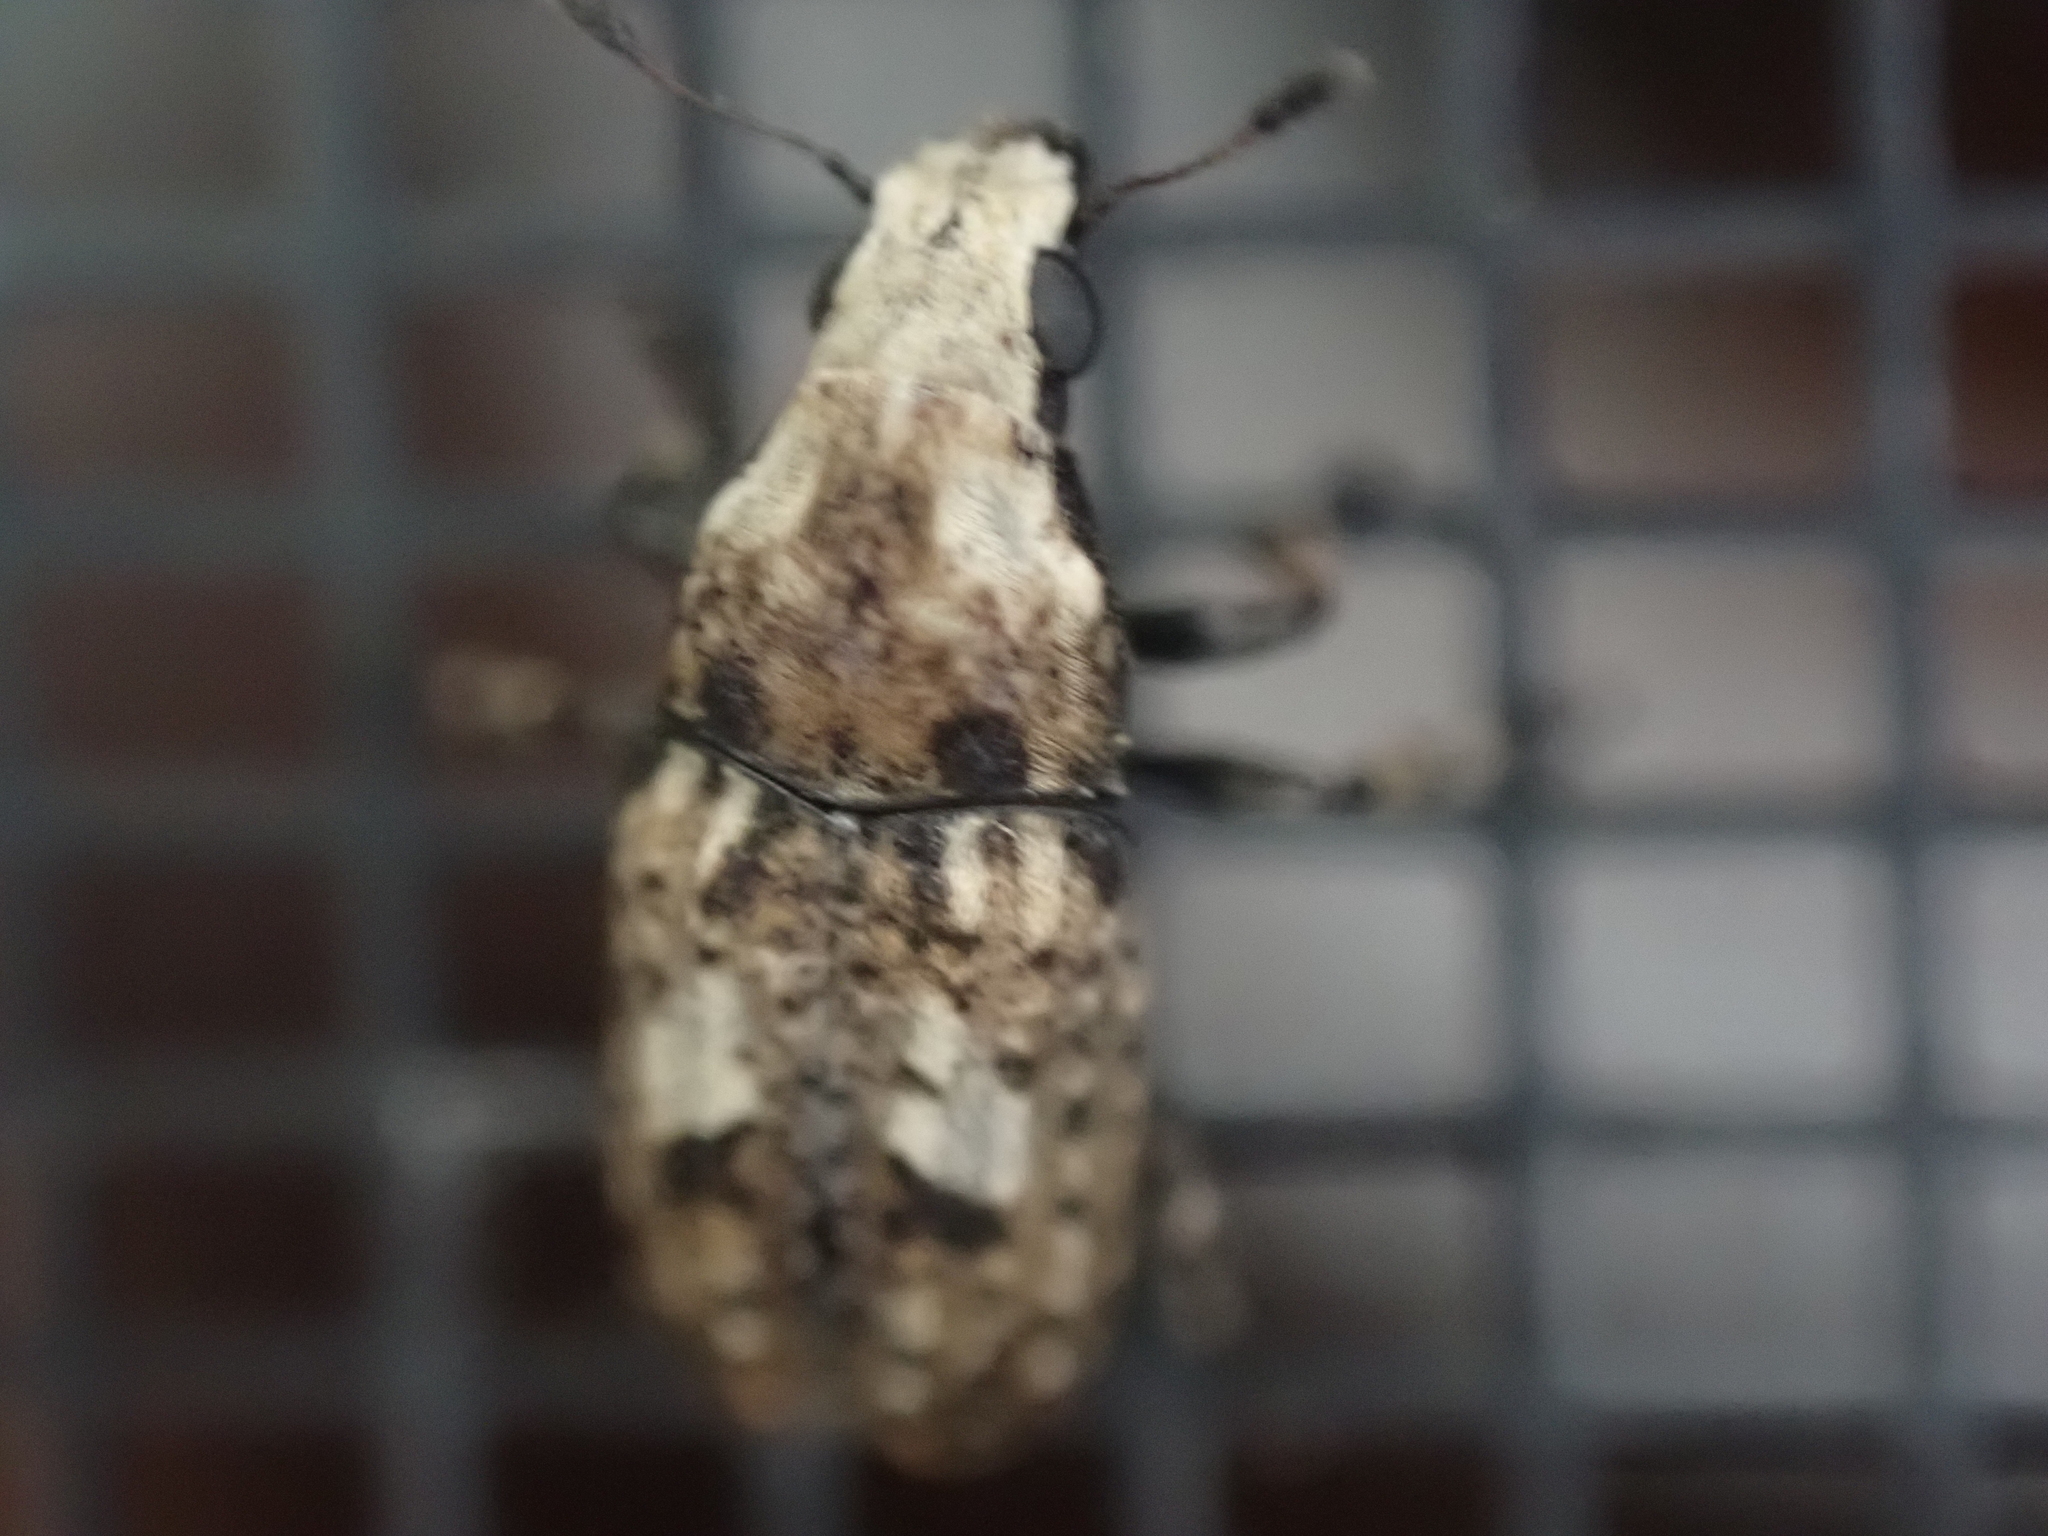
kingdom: Animalia
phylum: Arthropoda
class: Insecta
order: Coleoptera
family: Anthribidae
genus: Euparius
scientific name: Euparius marmoreus
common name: Marbled fungus weevil
